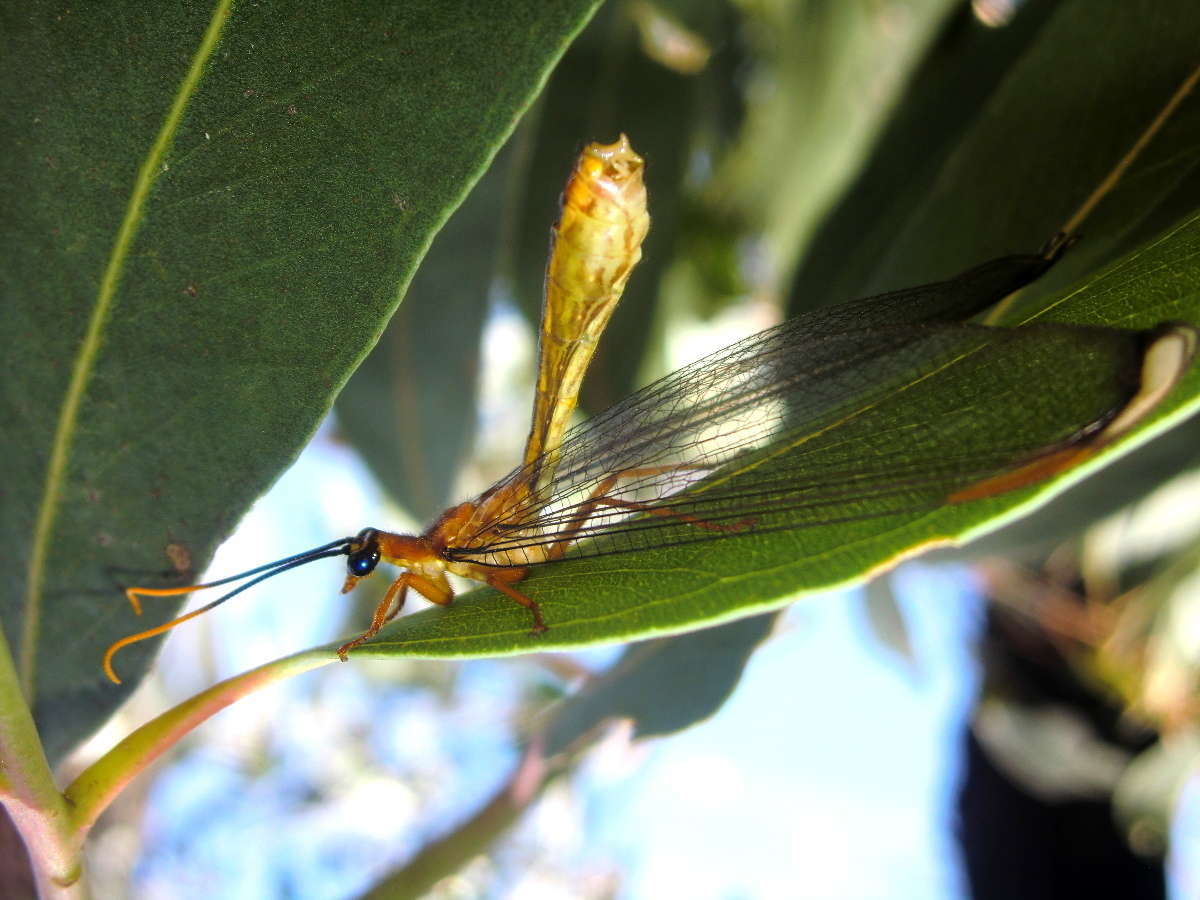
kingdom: Animalia
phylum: Arthropoda
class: Insecta
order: Neuroptera
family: Nymphidae
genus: Nymphes
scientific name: Nymphes myrmeleonoides
